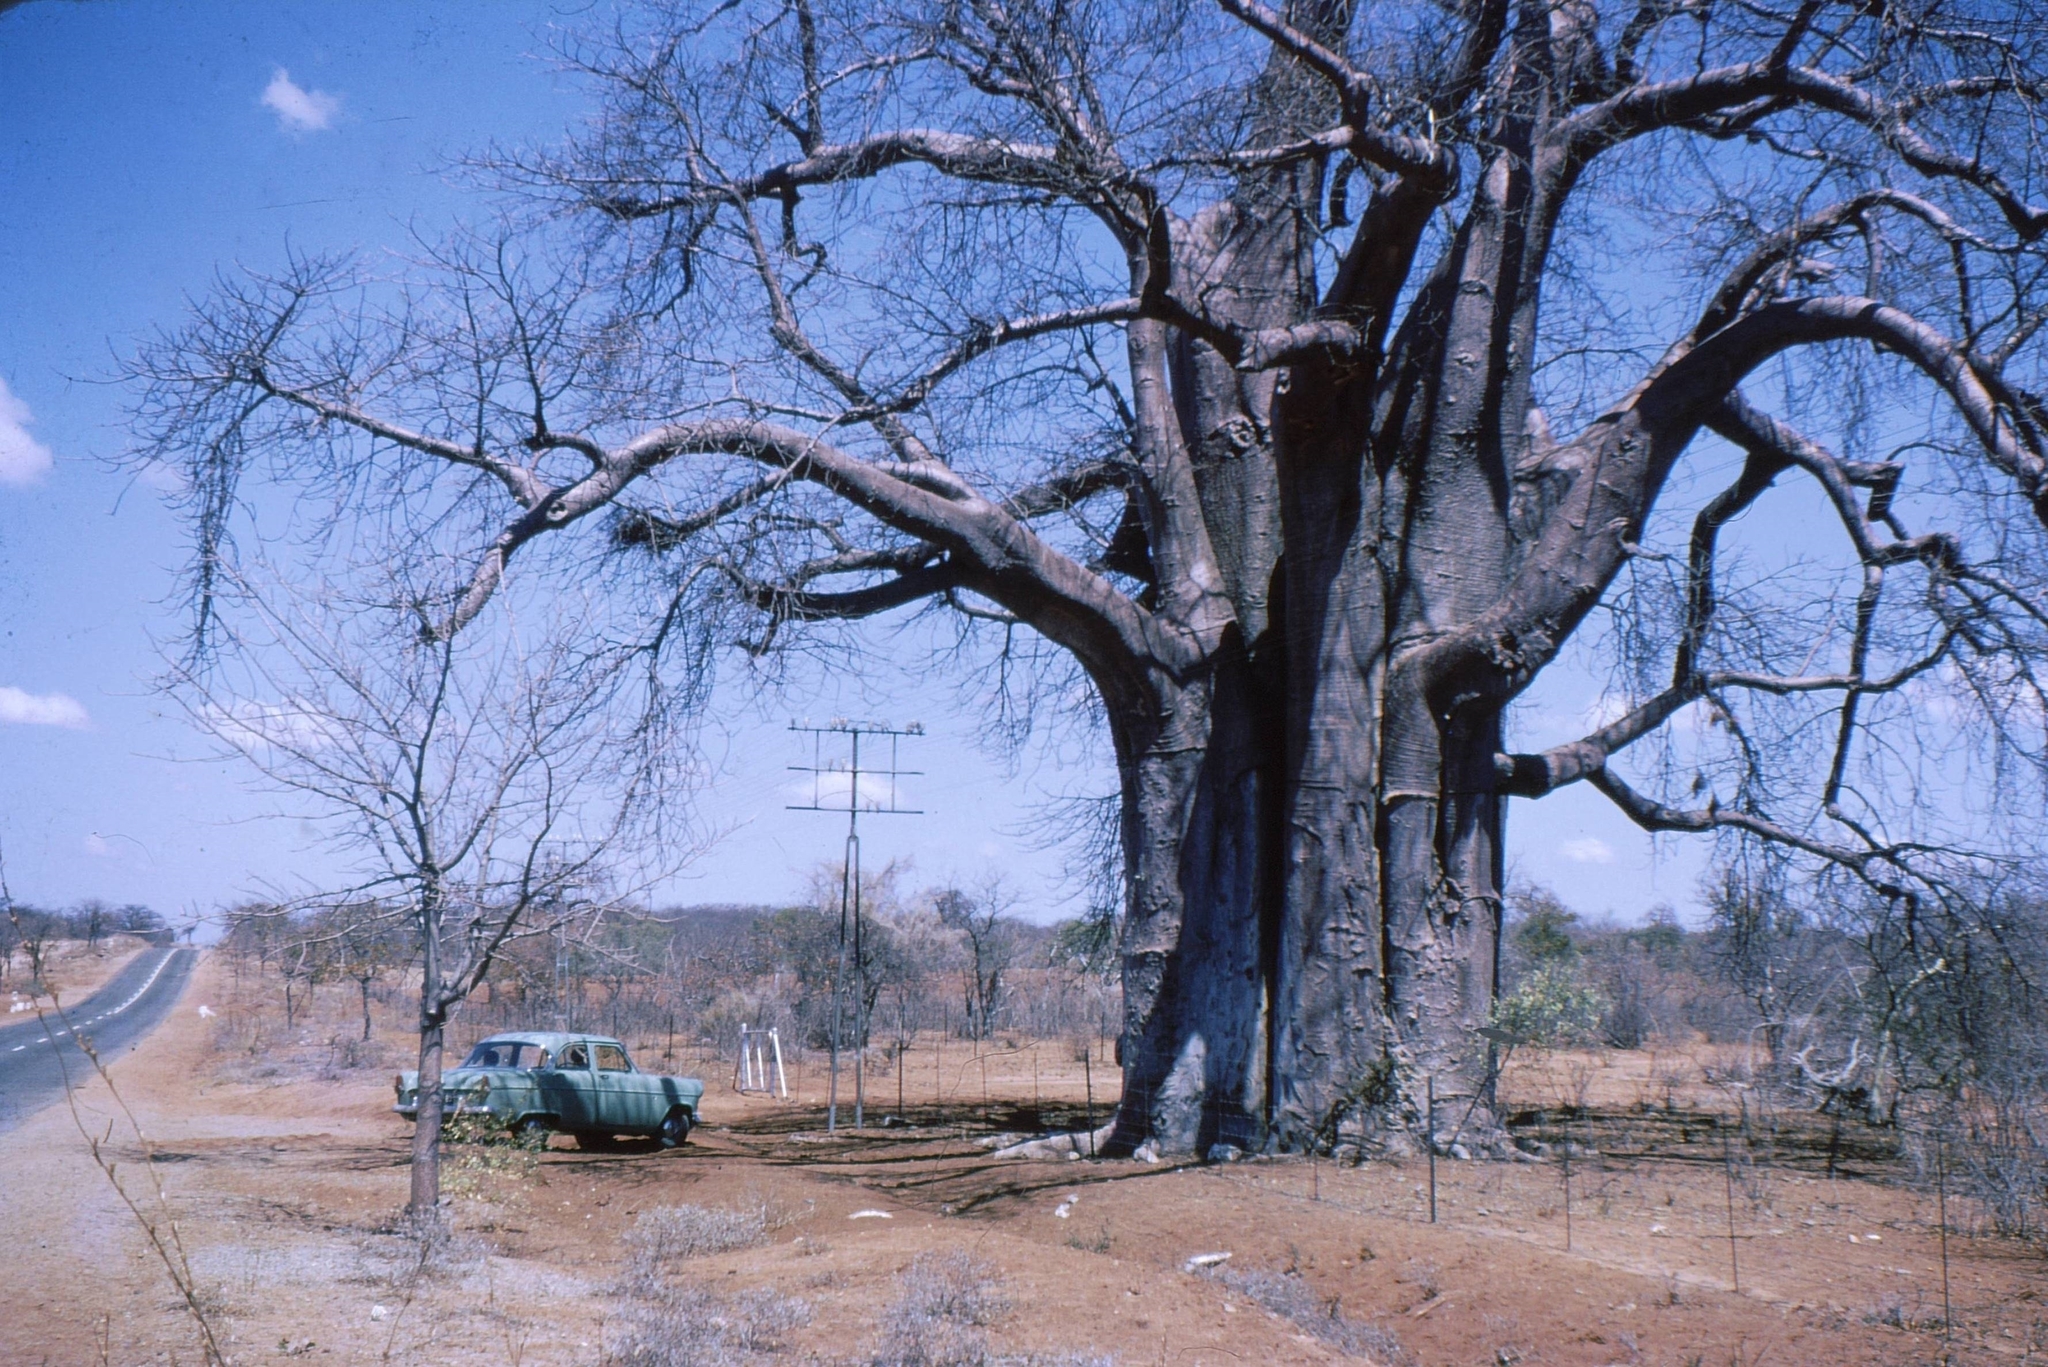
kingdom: Plantae
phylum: Tracheophyta
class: Magnoliopsida
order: Malvales
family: Malvaceae
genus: Adansonia
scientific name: Adansonia digitata
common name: Dead-rat-tree
